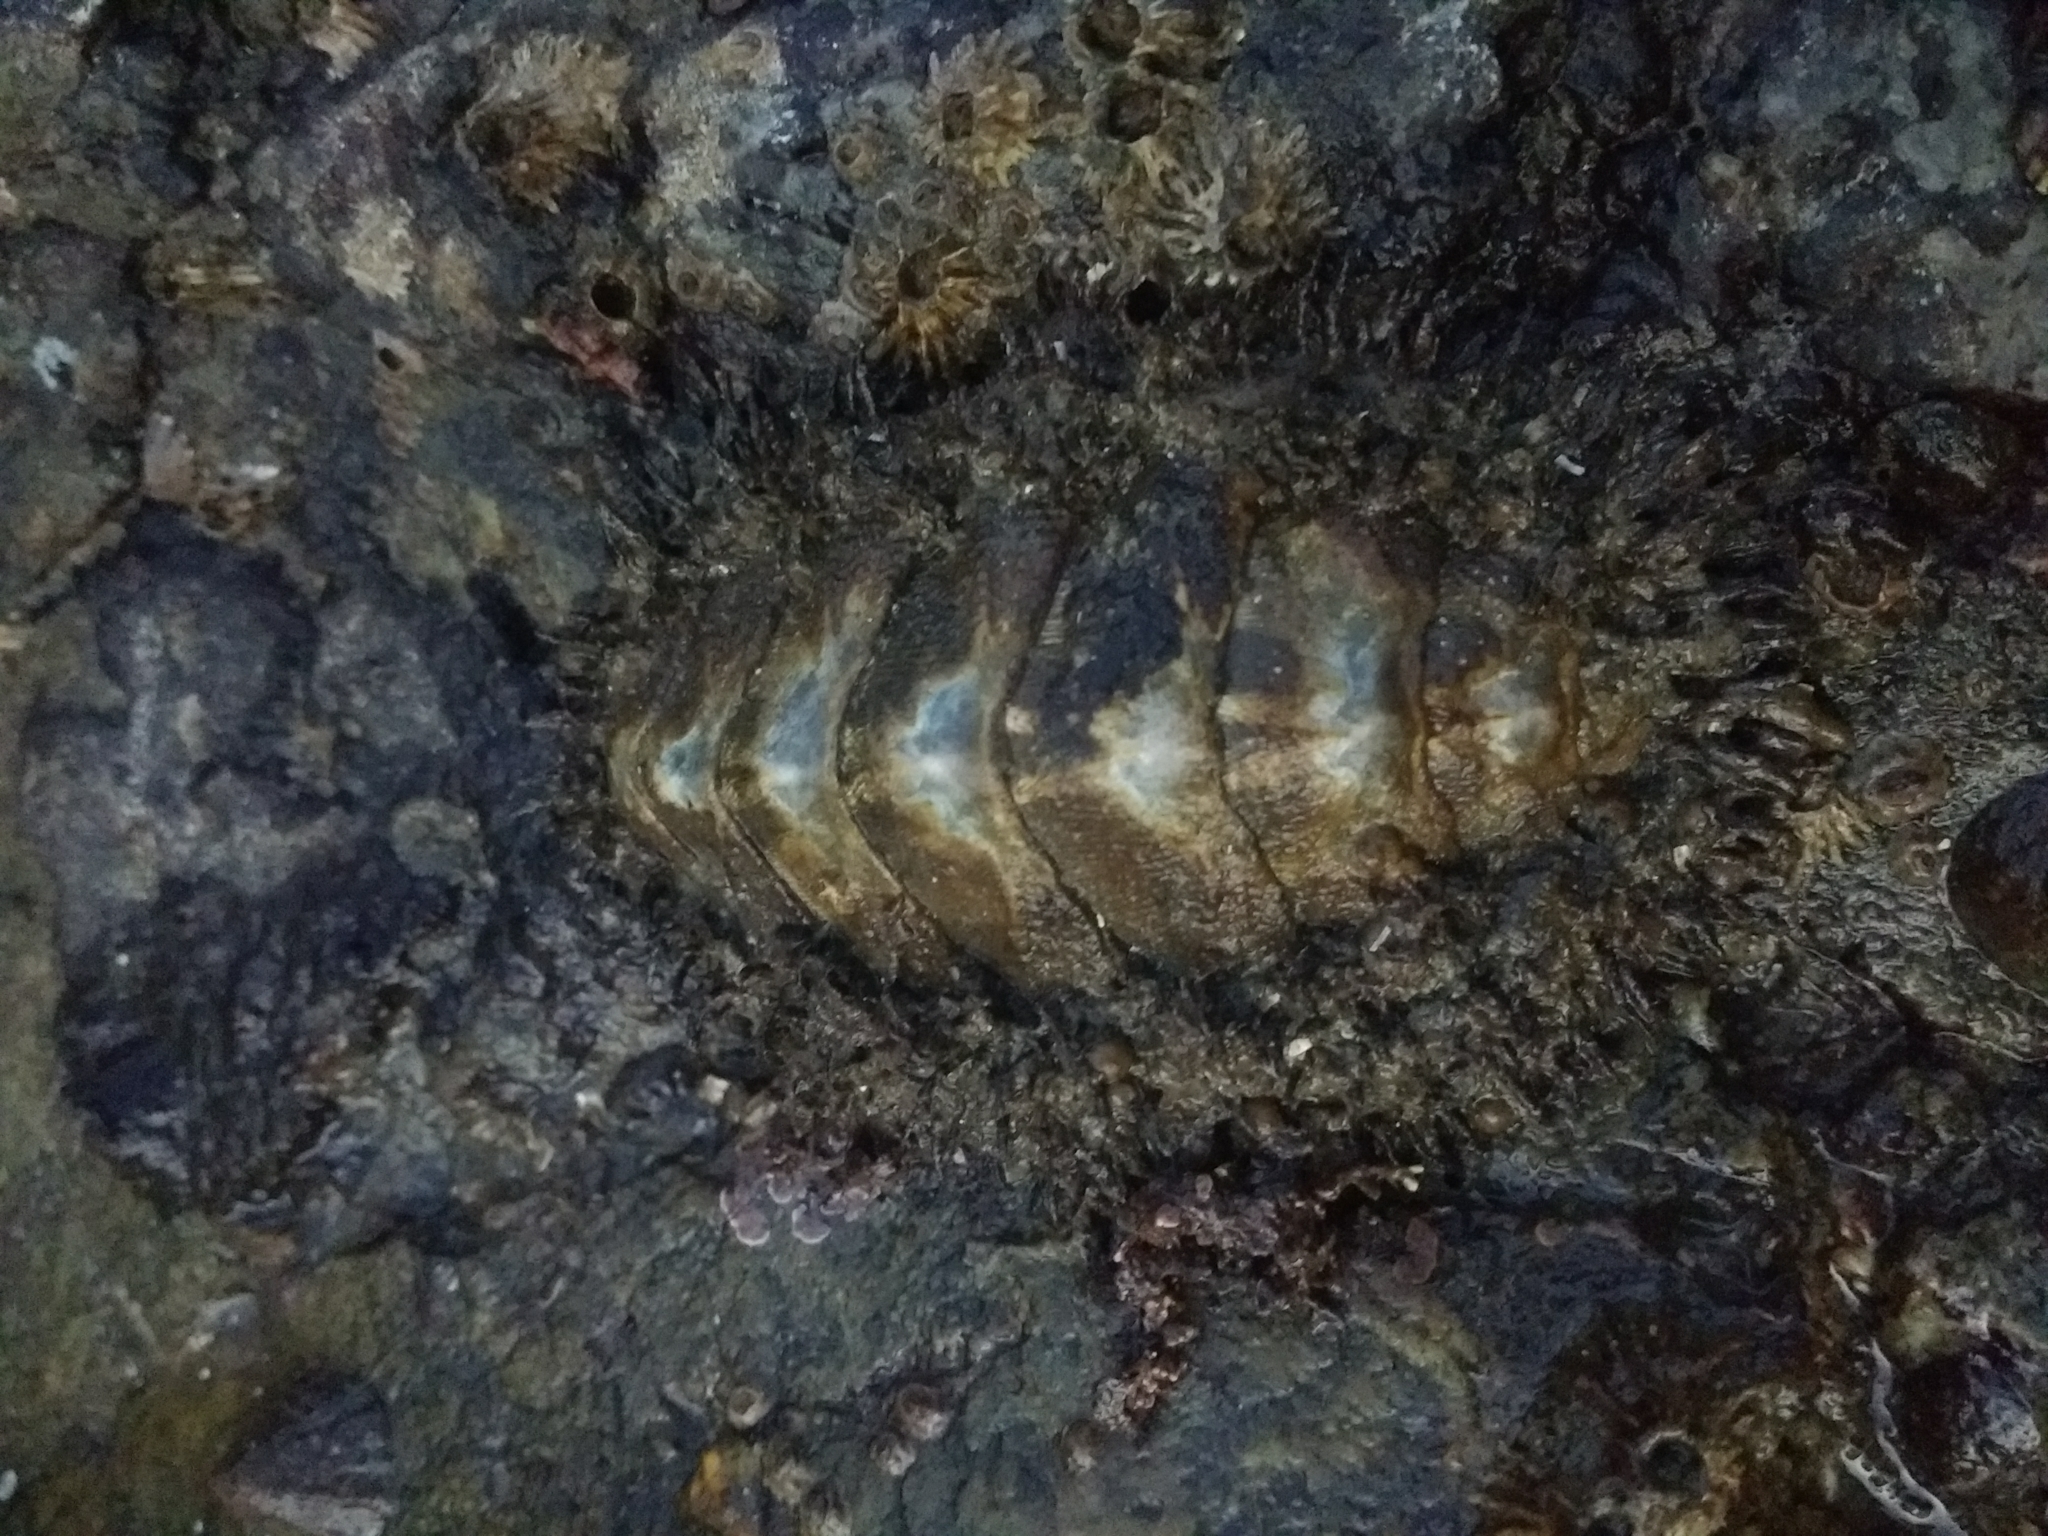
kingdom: Animalia
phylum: Mollusca
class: Polyplacophora
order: Chitonida
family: Mopaliidae
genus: Mopalia
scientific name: Mopalia muscosa
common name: Mossy chiton
